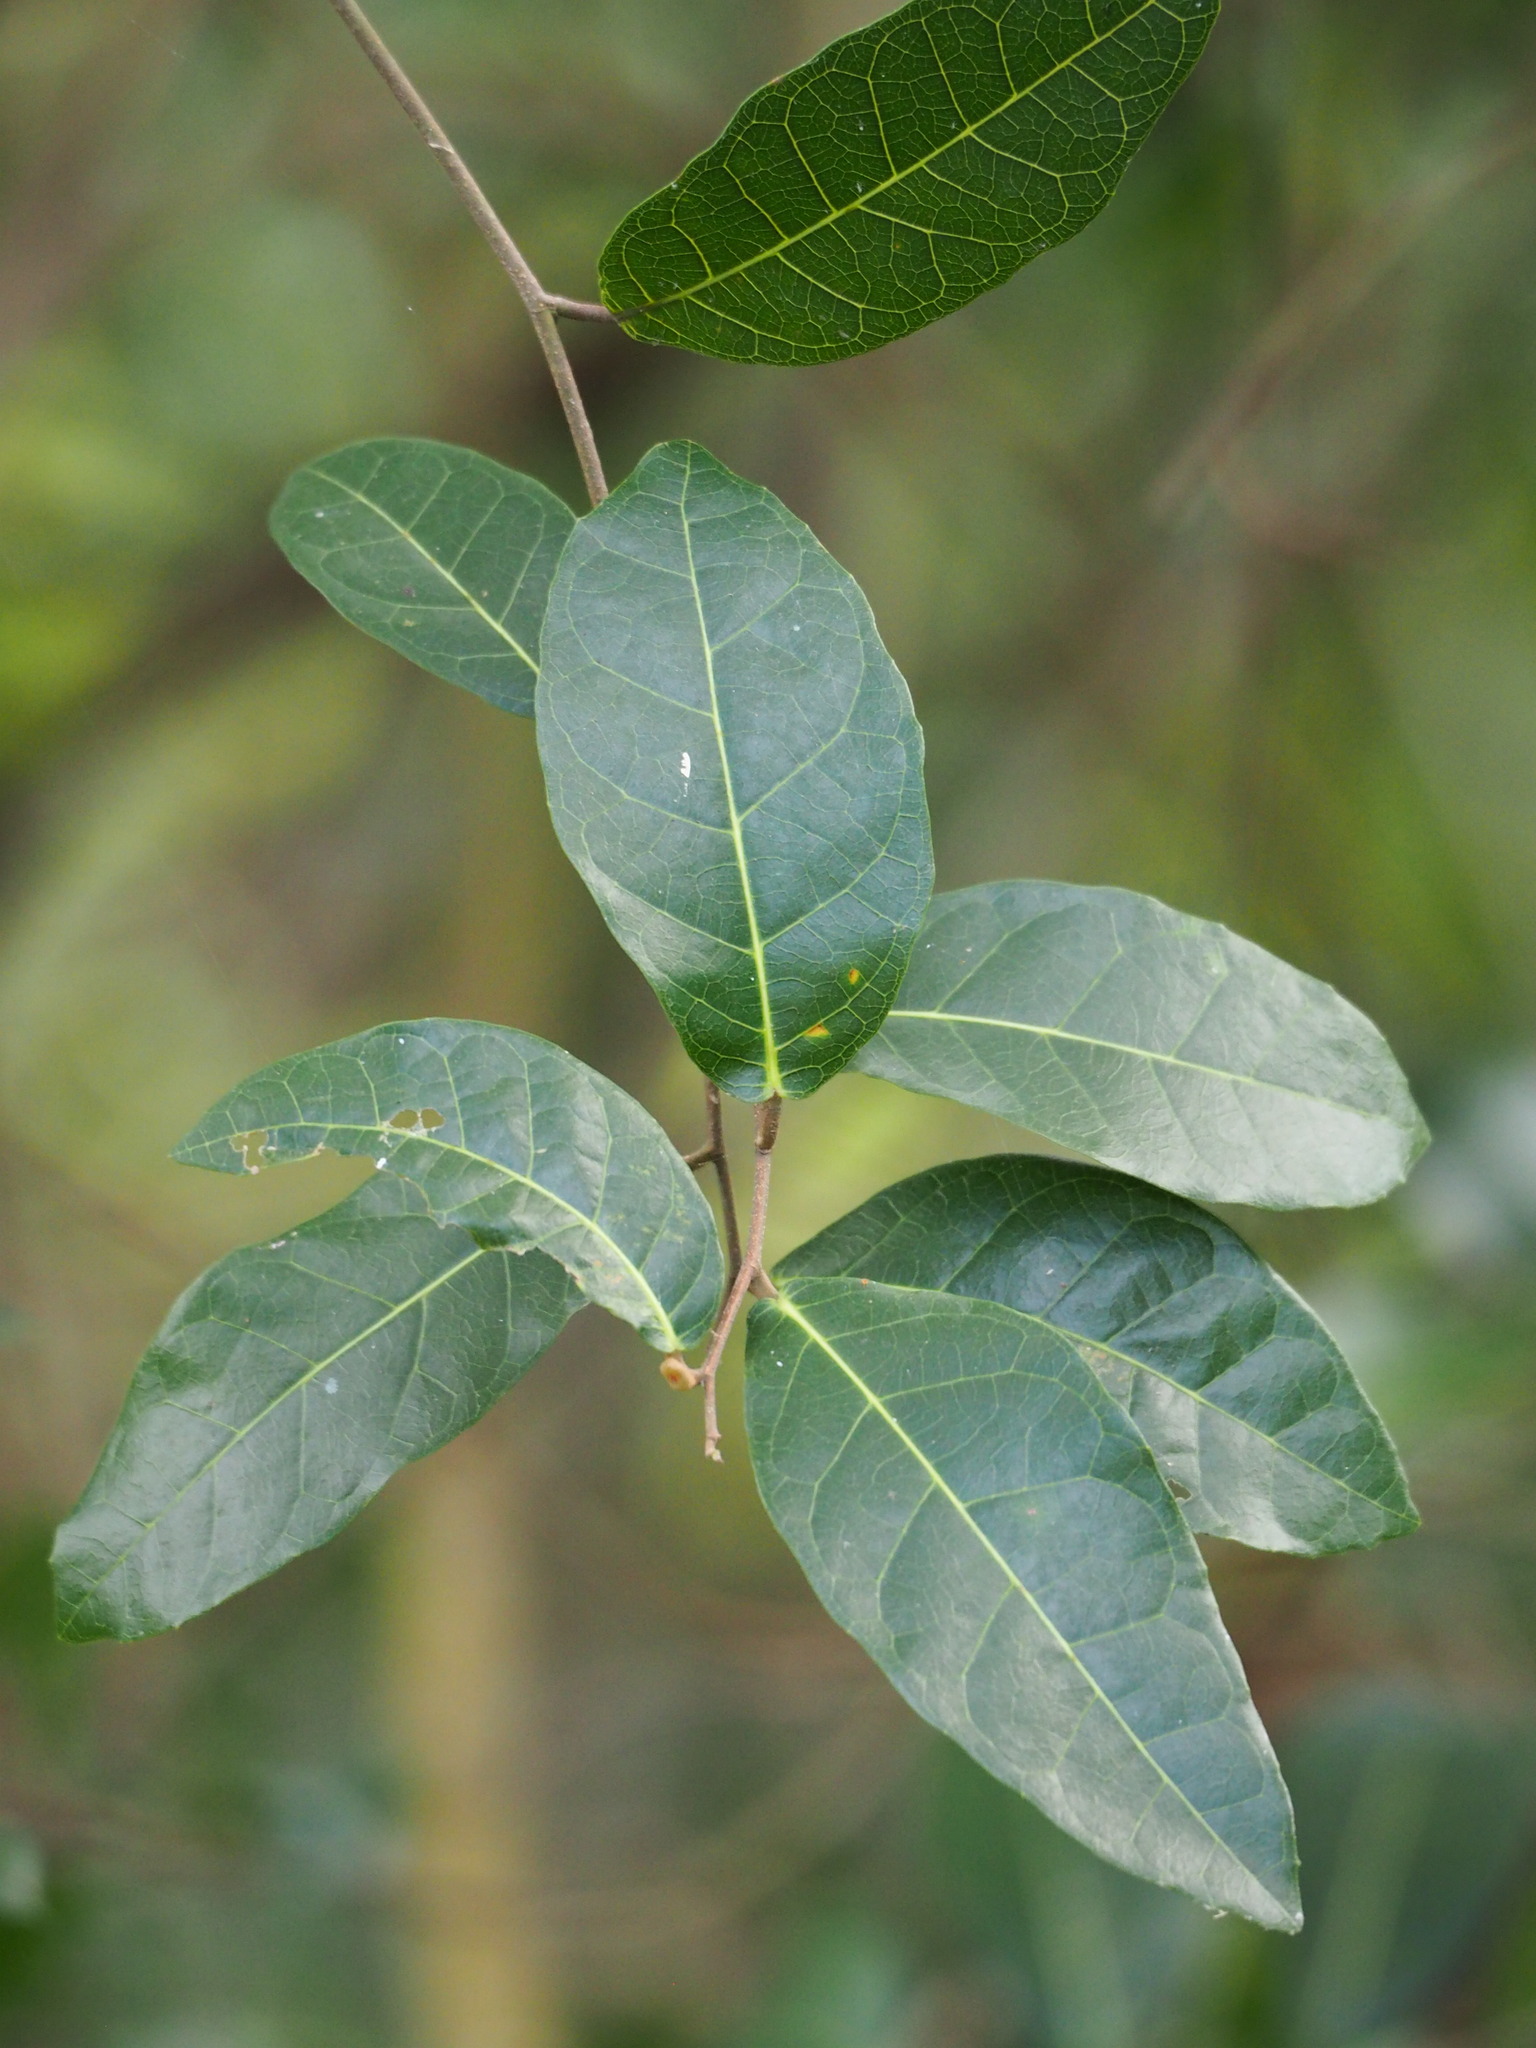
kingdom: Plantae
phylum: Tracheophyta
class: Magnoliopsida
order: Rosales
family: Moraceae
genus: Malaisia
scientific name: Malaisia scandens
